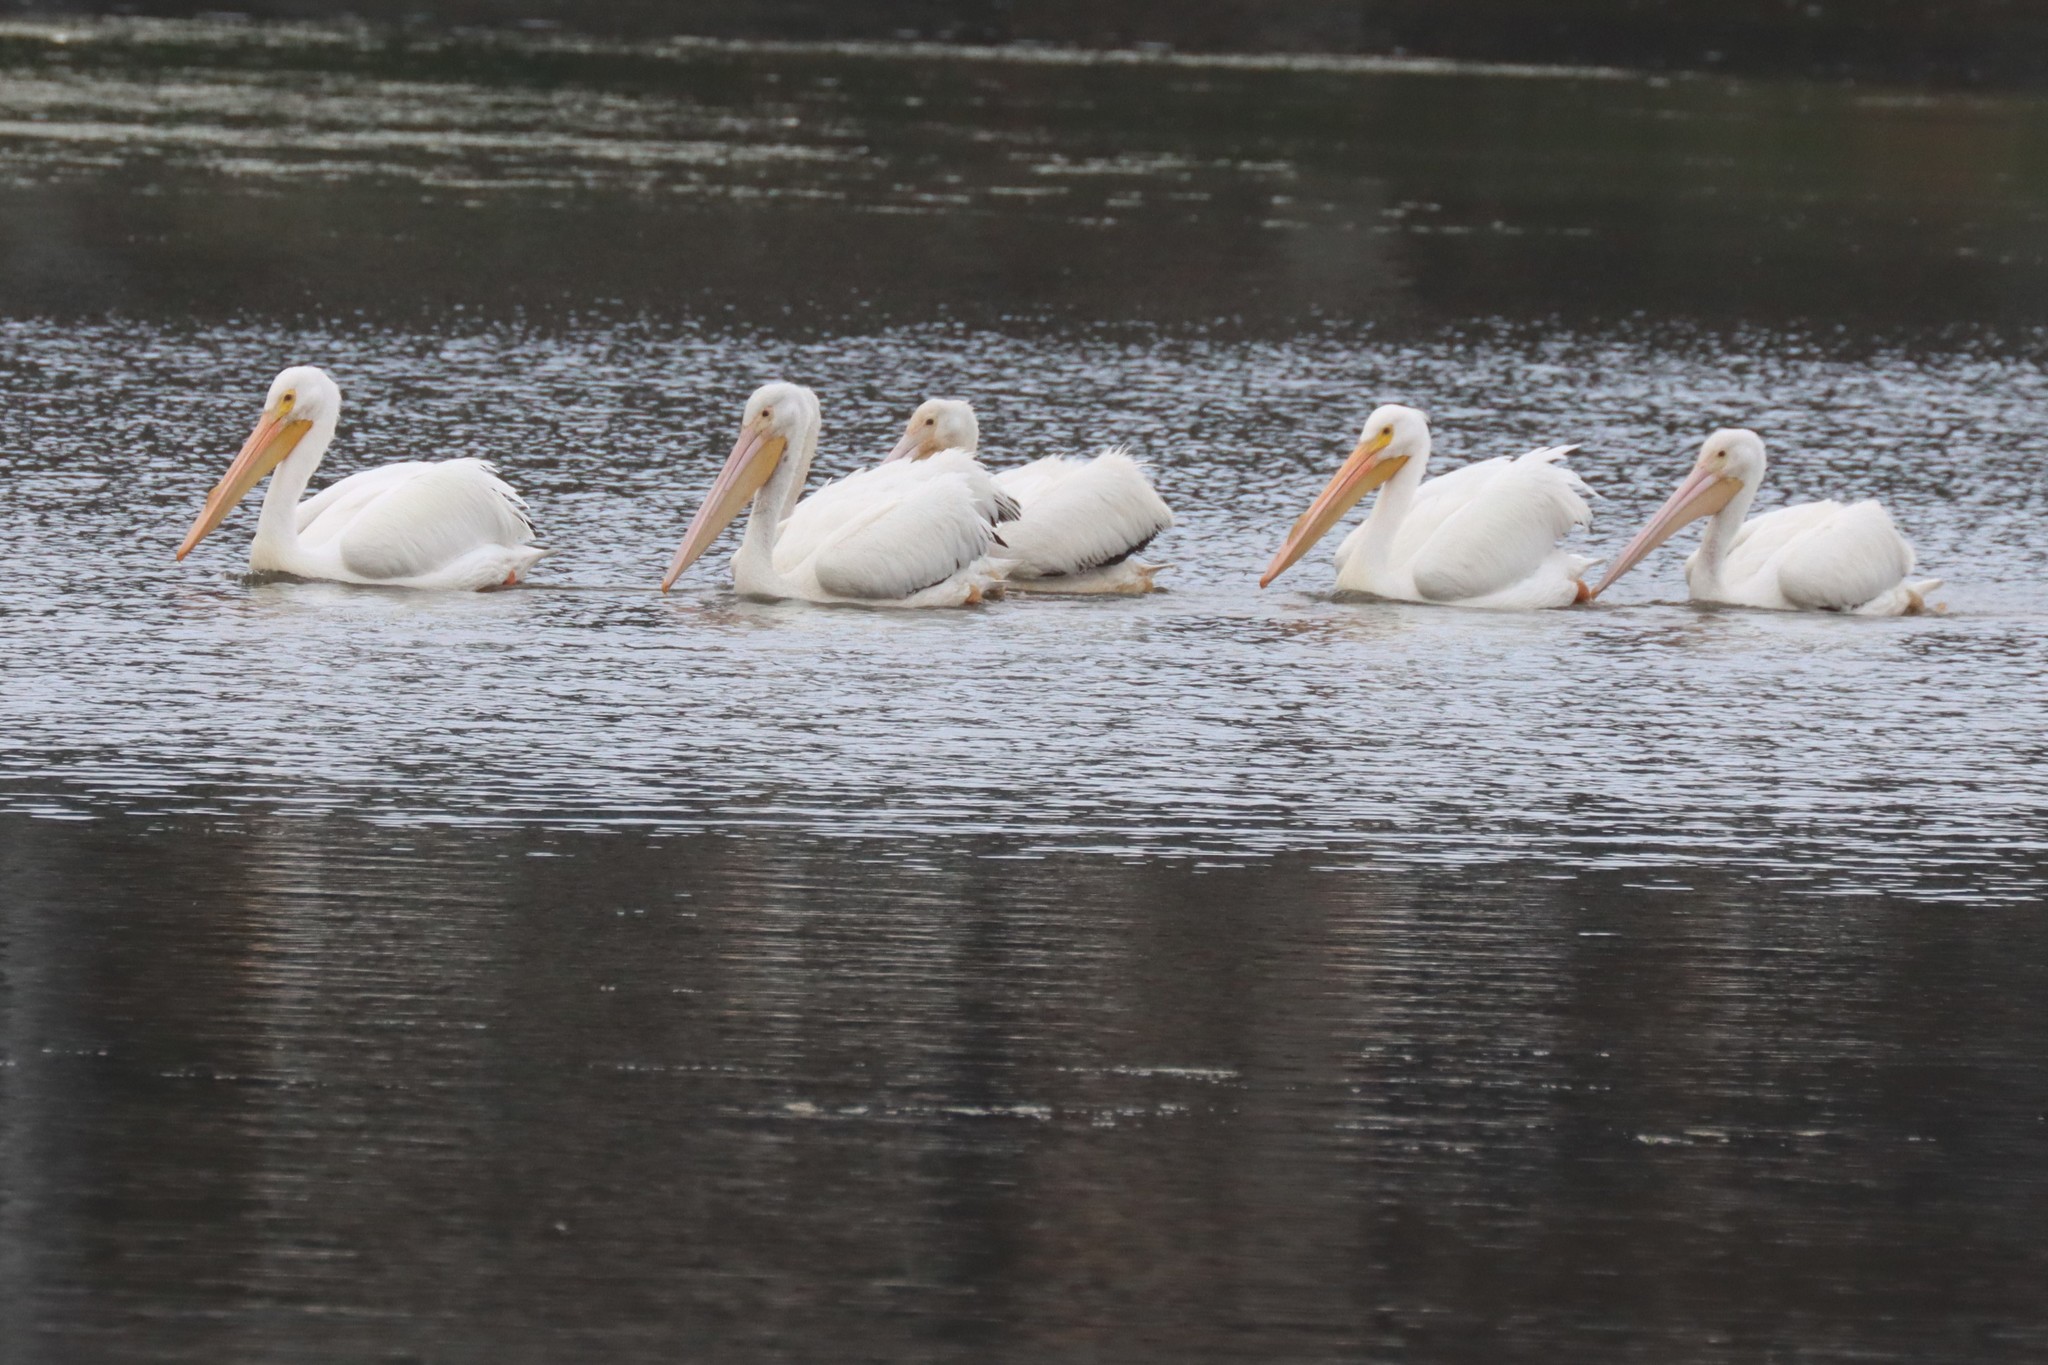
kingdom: Animalia
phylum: Chordata
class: Aves
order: Pelecaniformes
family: Pelecanidae
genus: Pelecanus
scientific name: Pelecanus erythrorhynchos
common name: American white pelican
